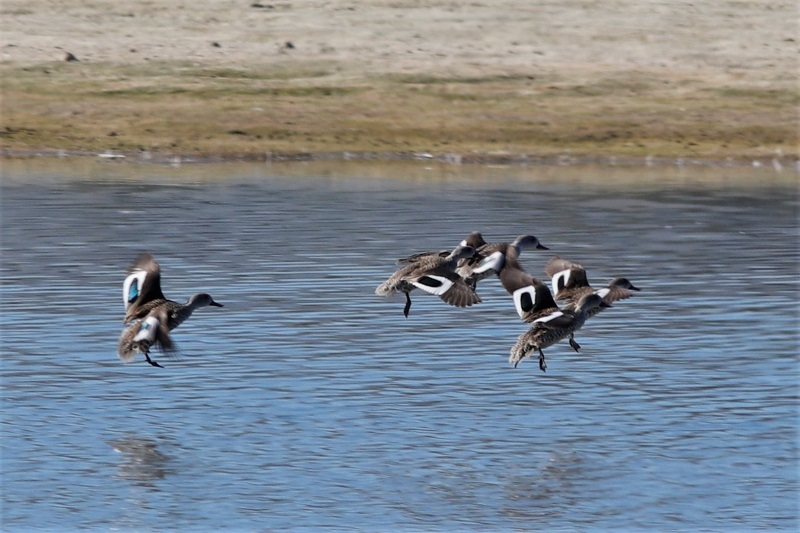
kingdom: Animalia
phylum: Chordata
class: Aves
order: Anseriformes
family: Anatidae
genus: Anas
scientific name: Anas capensis
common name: Cape teal
